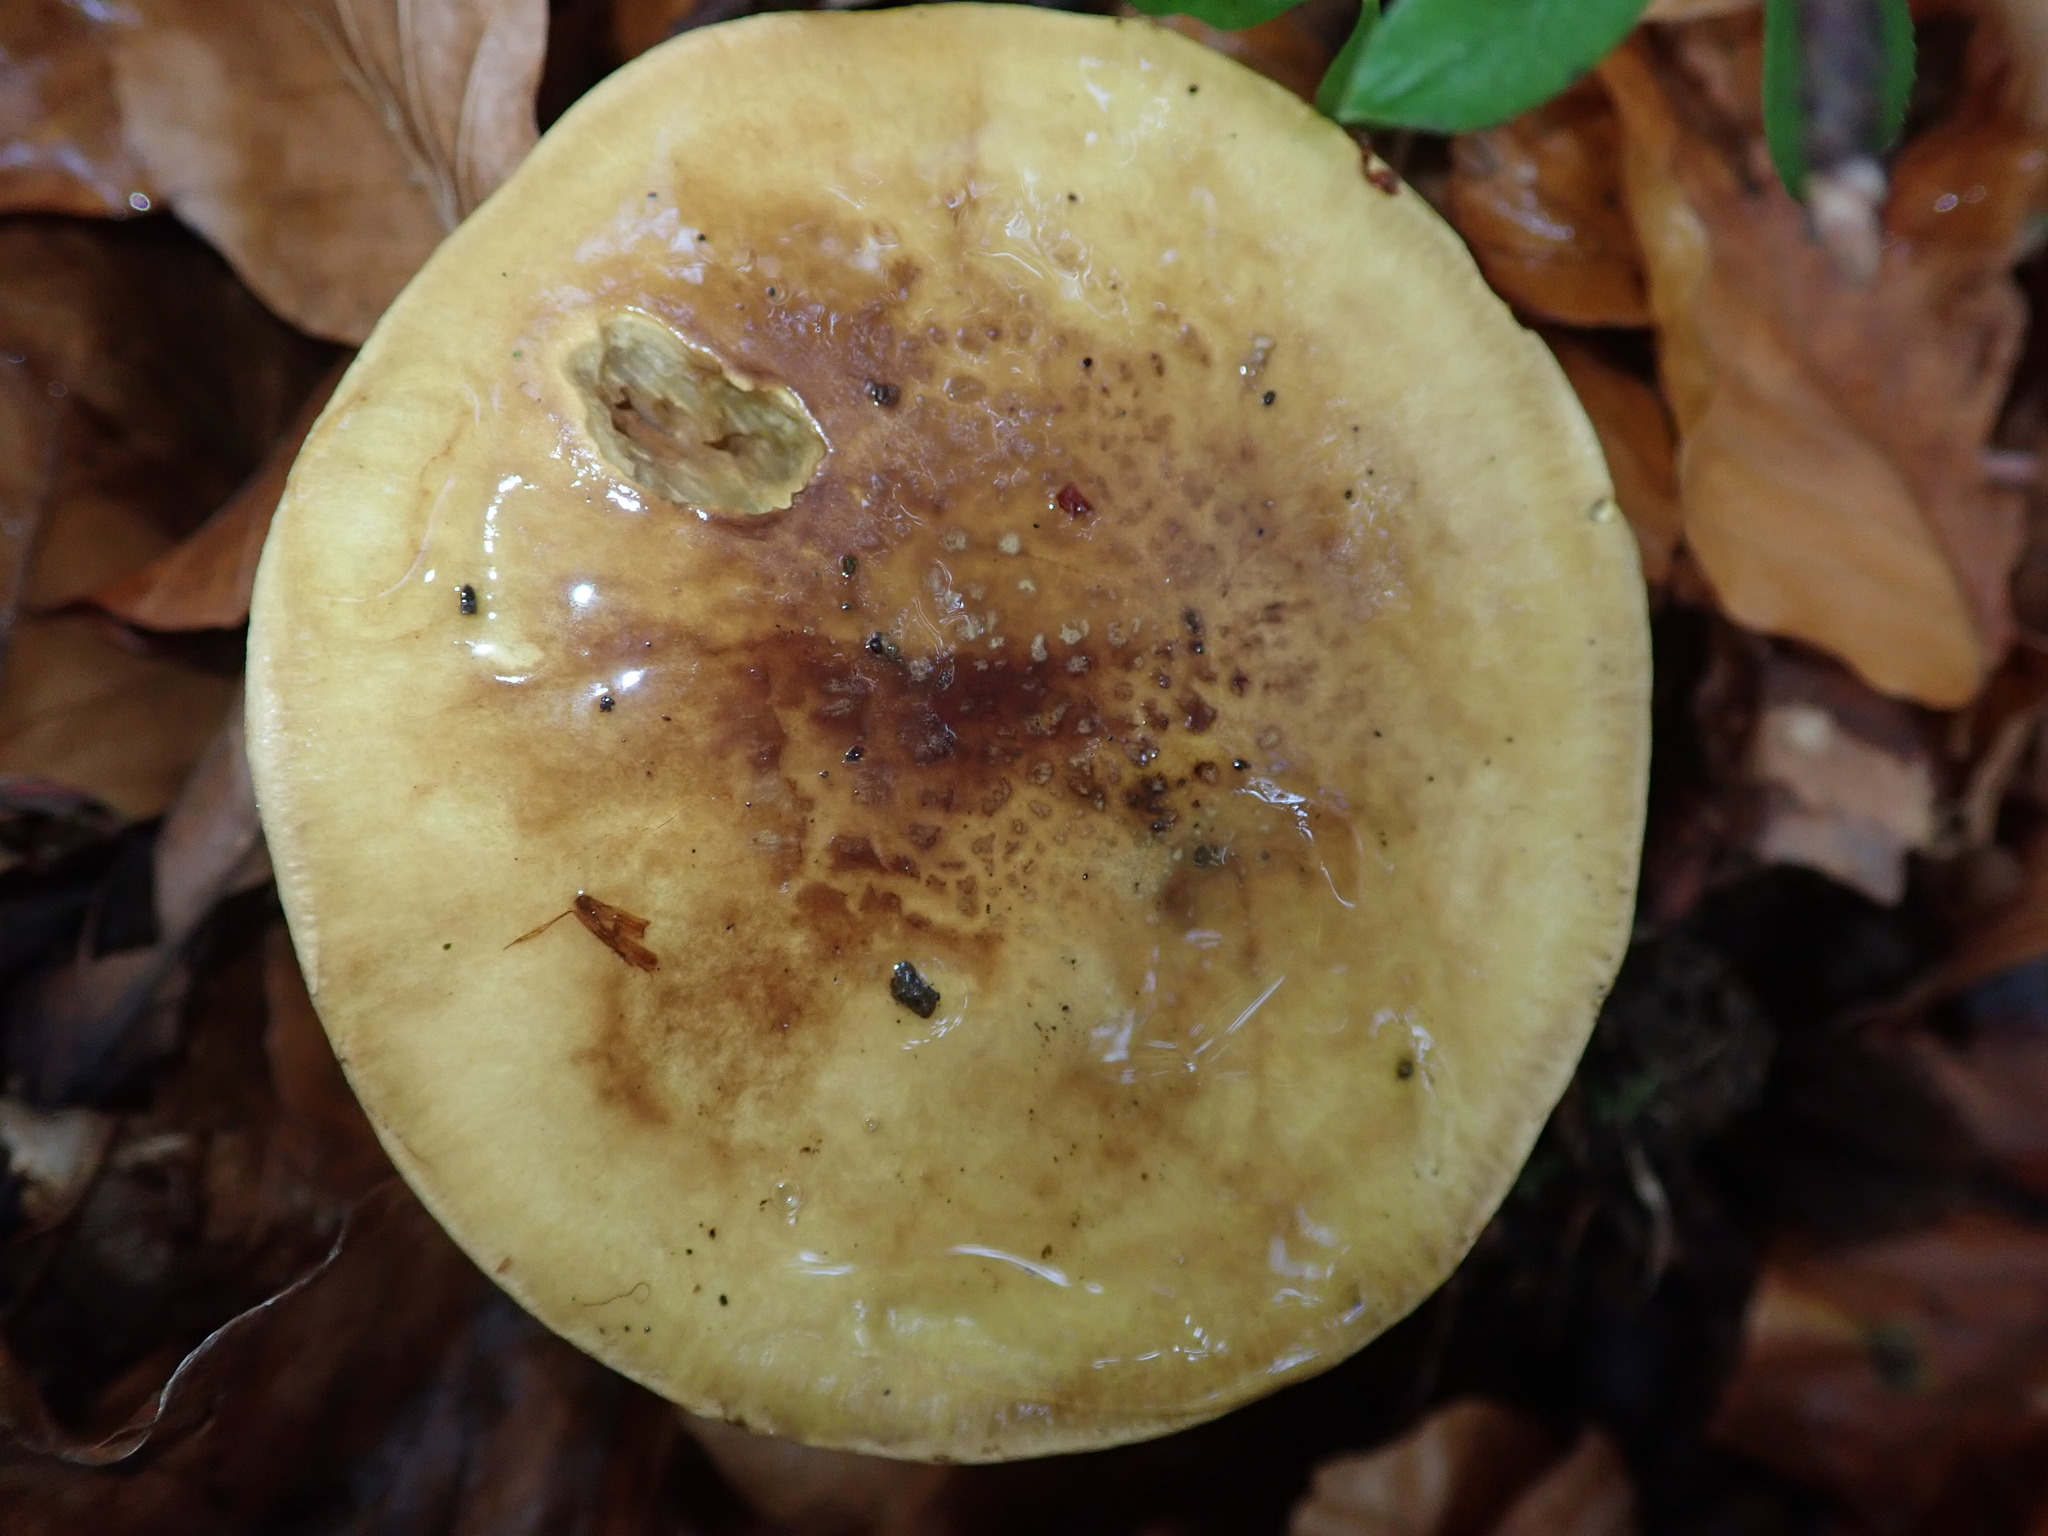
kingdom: Fungi
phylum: Basidiomycota
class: Agaricomycetes
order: Agaricales
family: Cortinariaceae
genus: Calonarius
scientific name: Calonarius flavovirens
